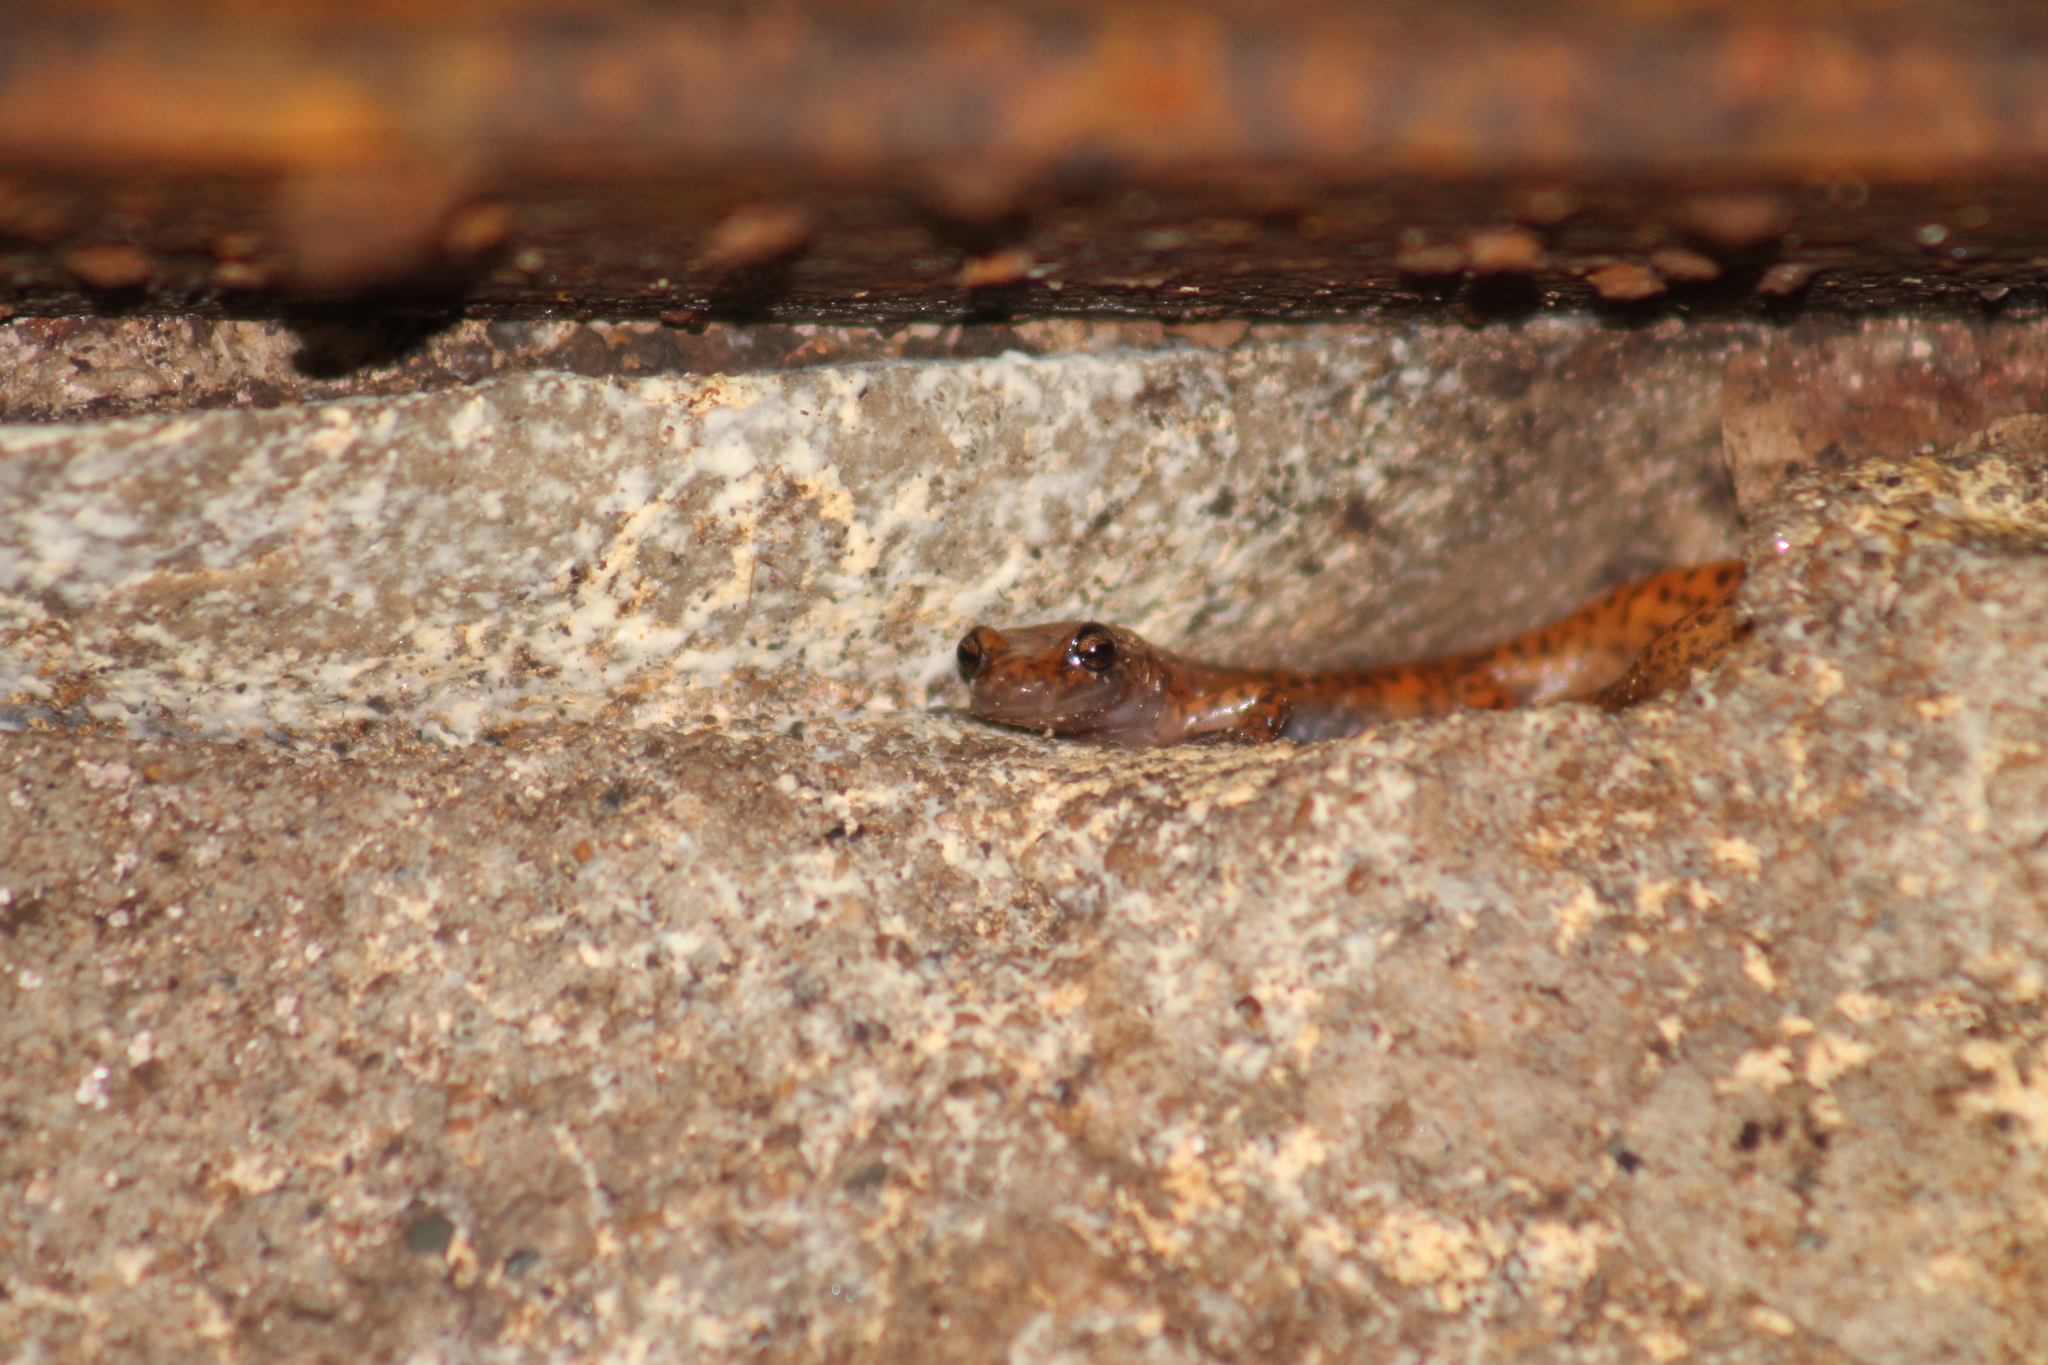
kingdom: Animalia
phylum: Chordata
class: Amphibia
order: Caudata
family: Plethodontidae
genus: Eurycea
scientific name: Eurycea lucifuga
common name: Cave salamander
